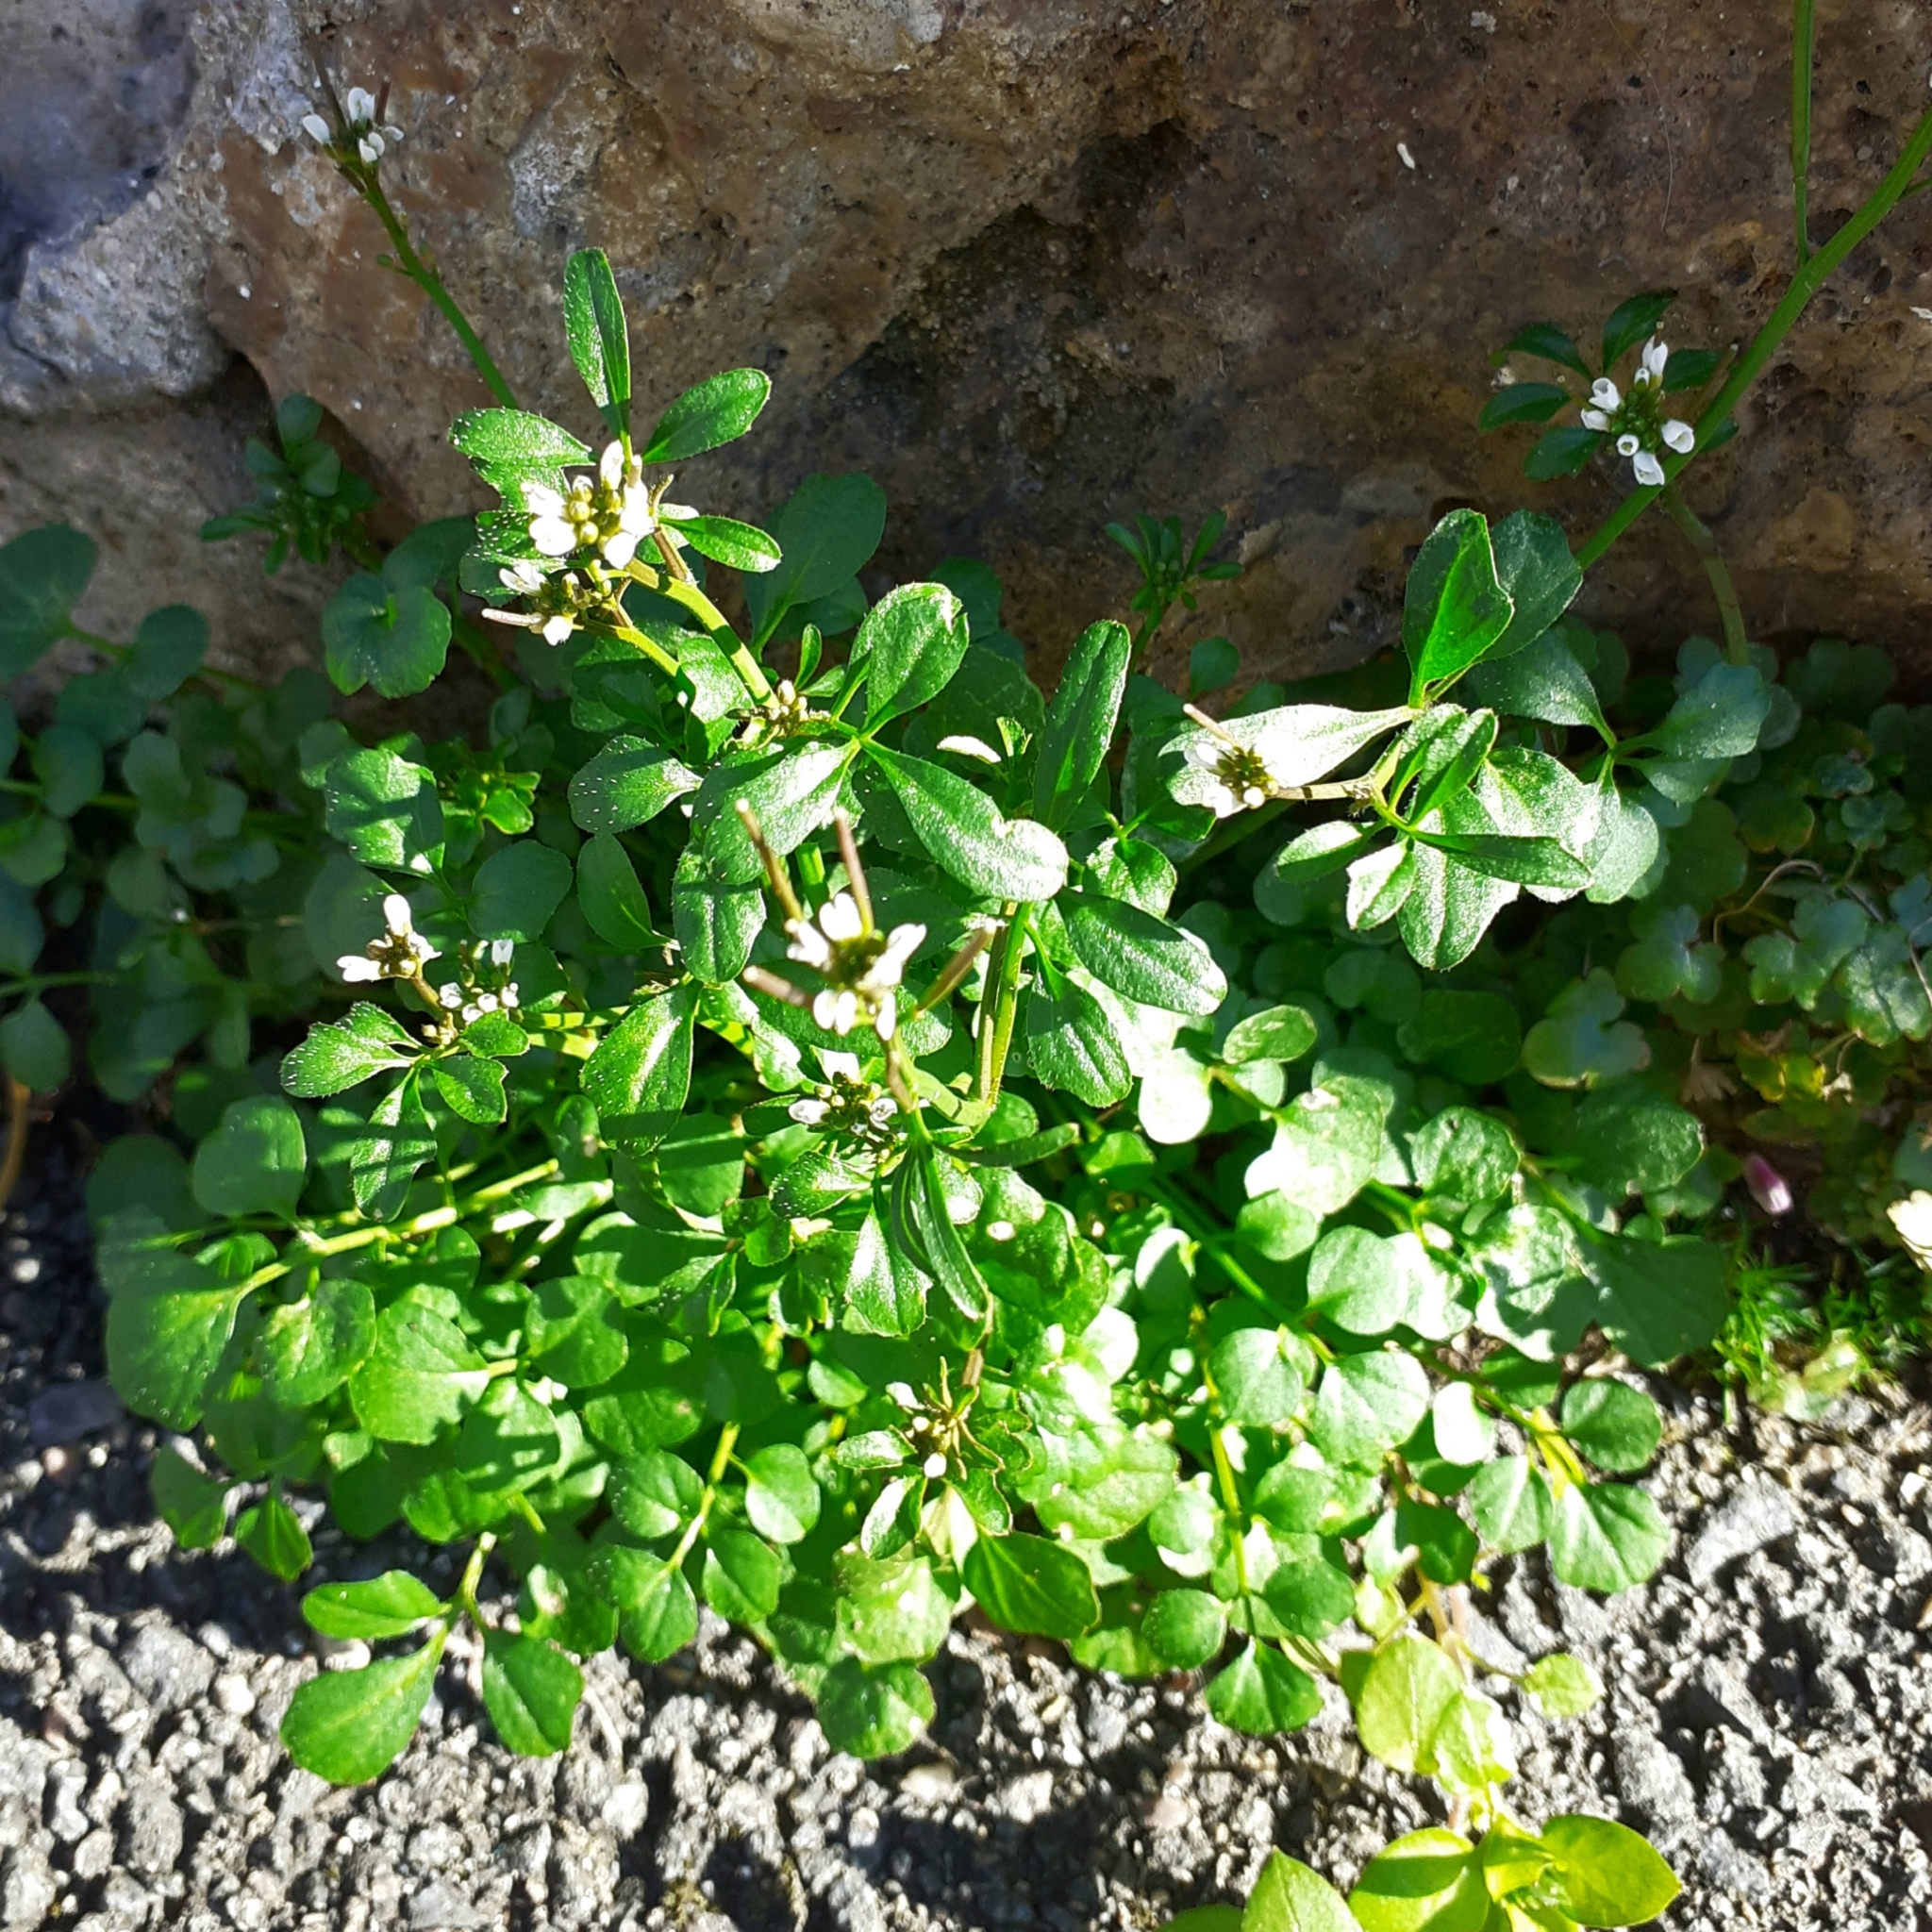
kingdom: Plantae
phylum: Tracheophyta
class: Magnoliopsida
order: Brassicales
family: Brassicaceae
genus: Cardamine
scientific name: Cardamine hirsuta
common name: Hairy bittercress
